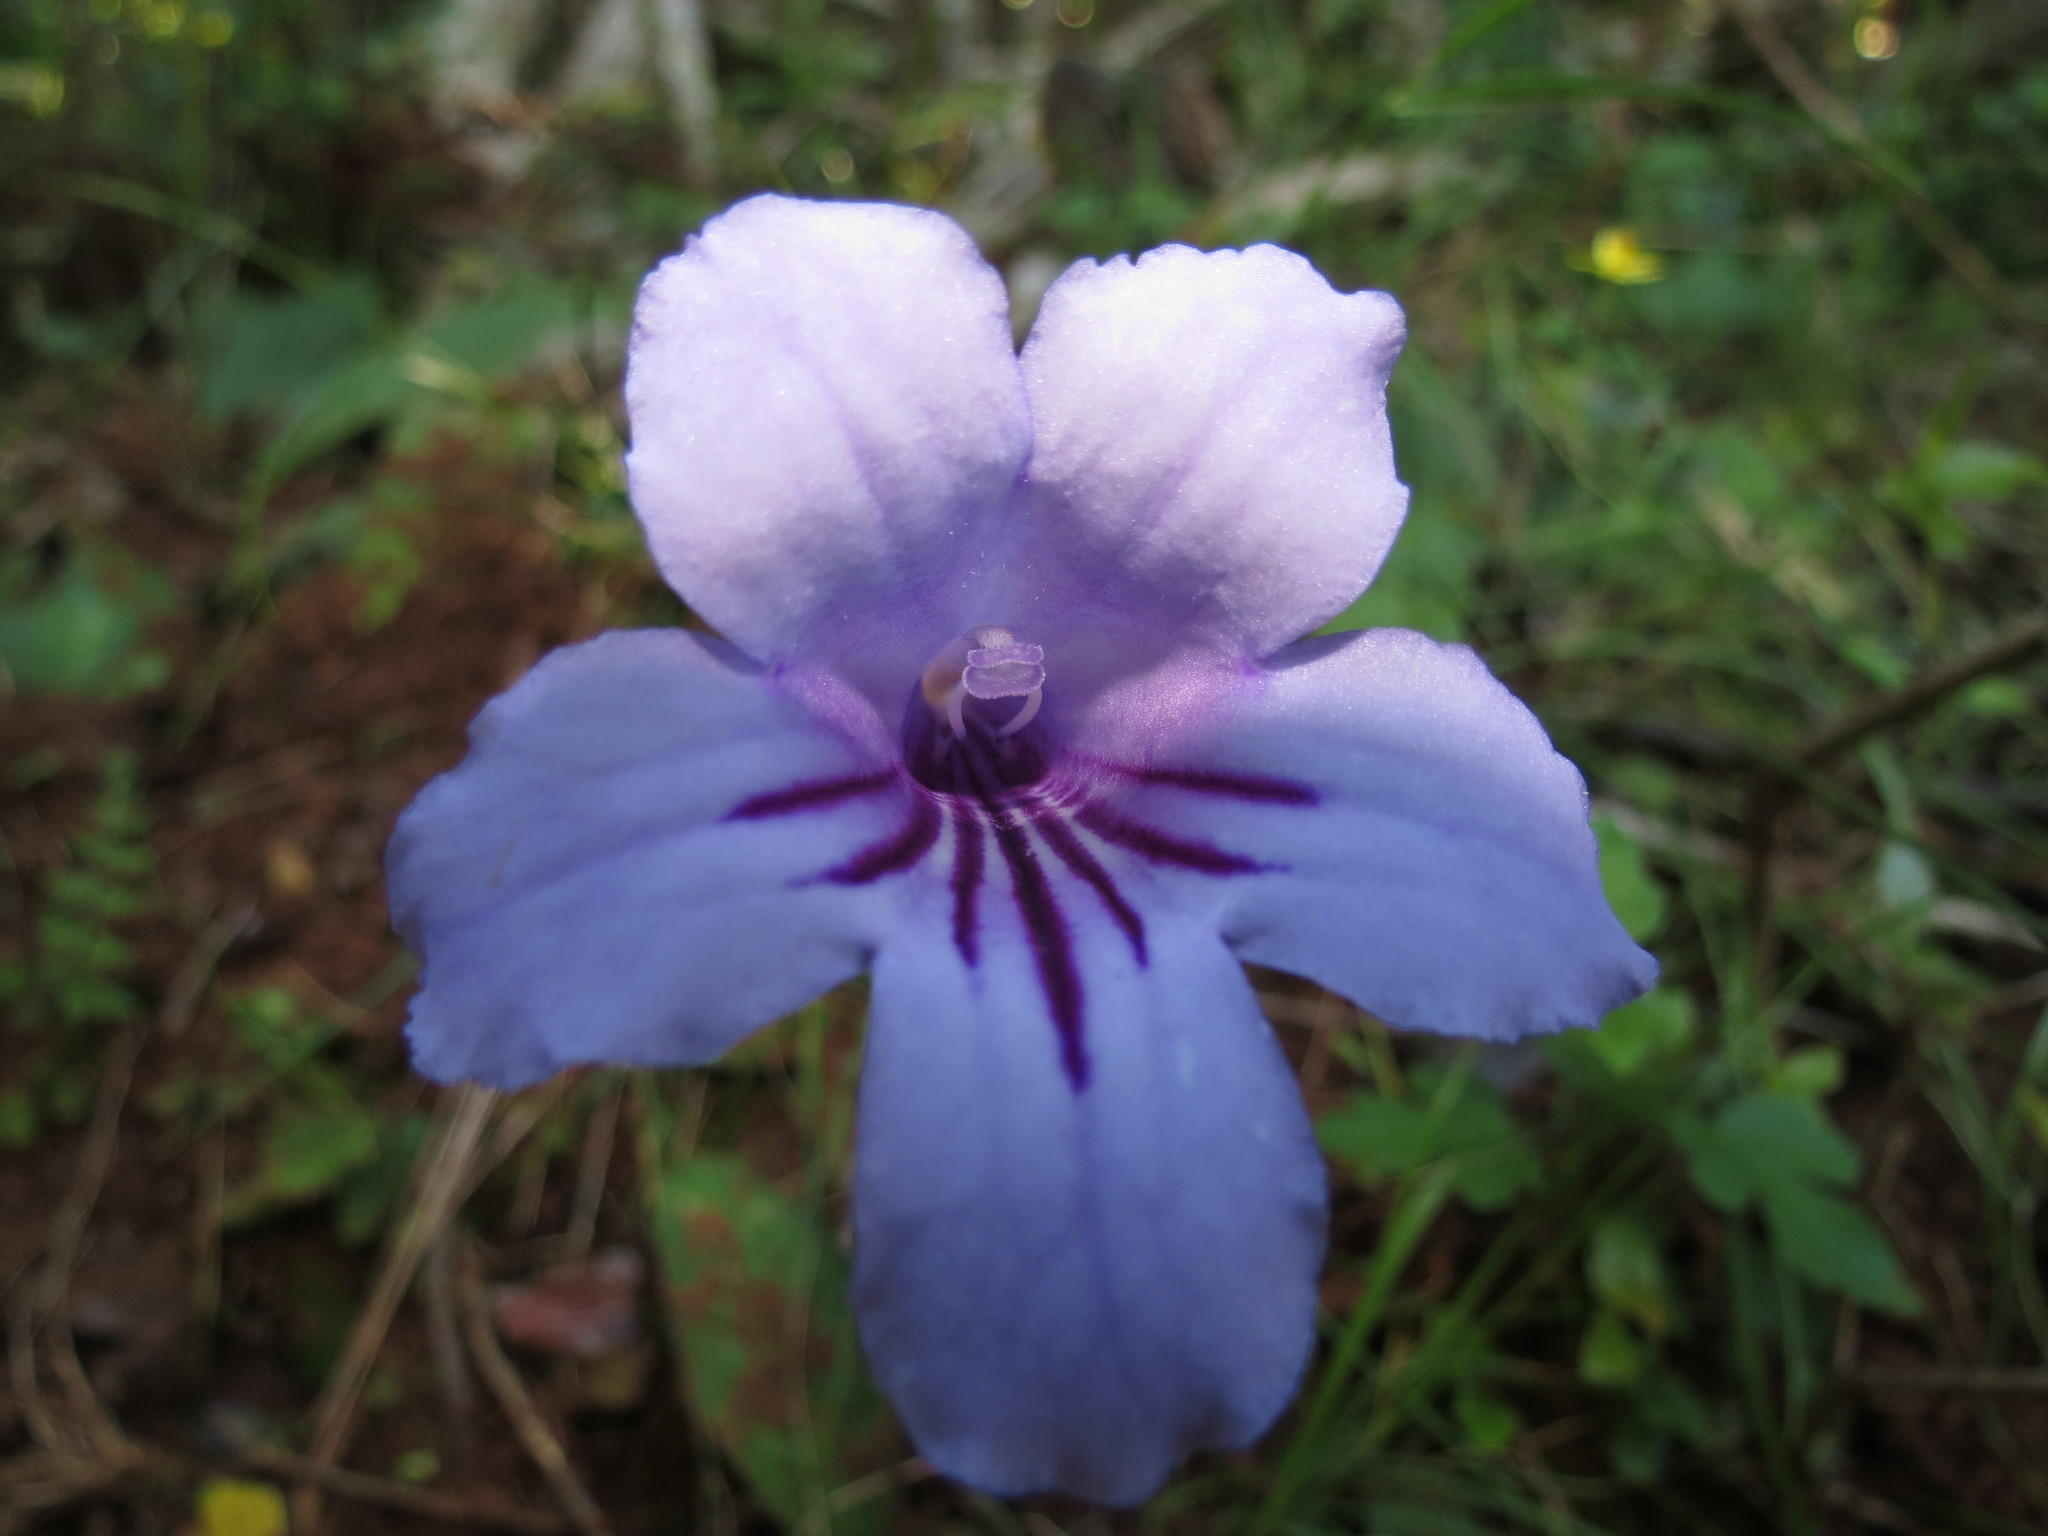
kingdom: Plantae
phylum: Tracheophyta
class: Magnoliopsida
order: Lamiales
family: Gesneriaceae
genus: Streptocarpus
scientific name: Streptocarpus rexii
